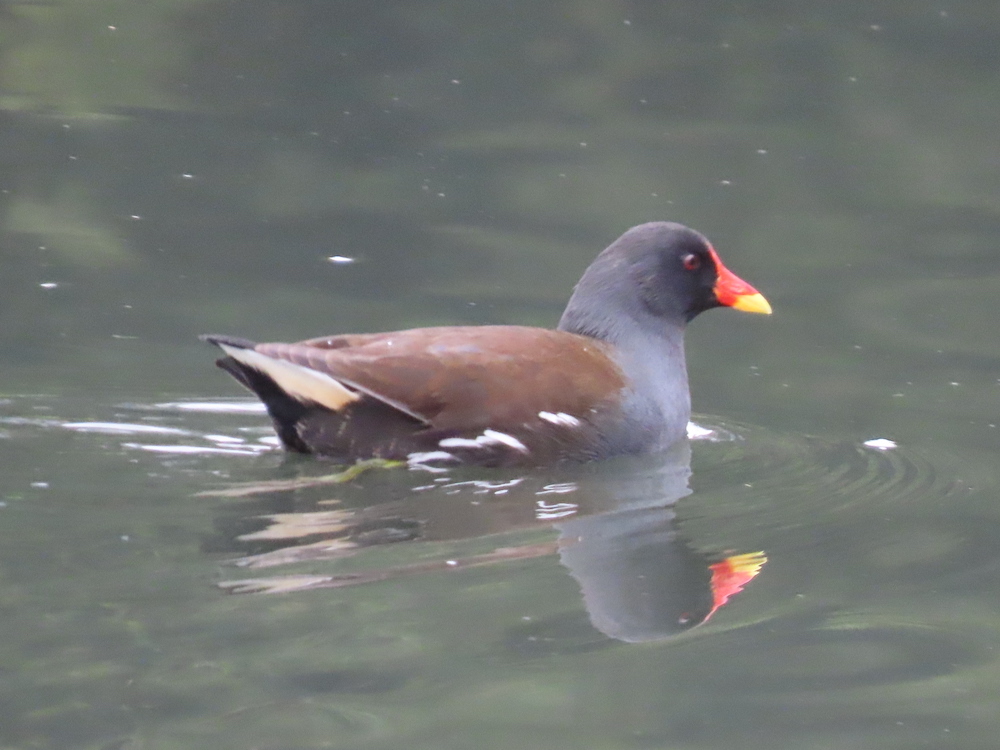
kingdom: Animalia
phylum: Chordata
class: Aves
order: Gruiformes
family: Rallidae
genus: Gallinula
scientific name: Gallinula chloropus
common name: Common moorhen
